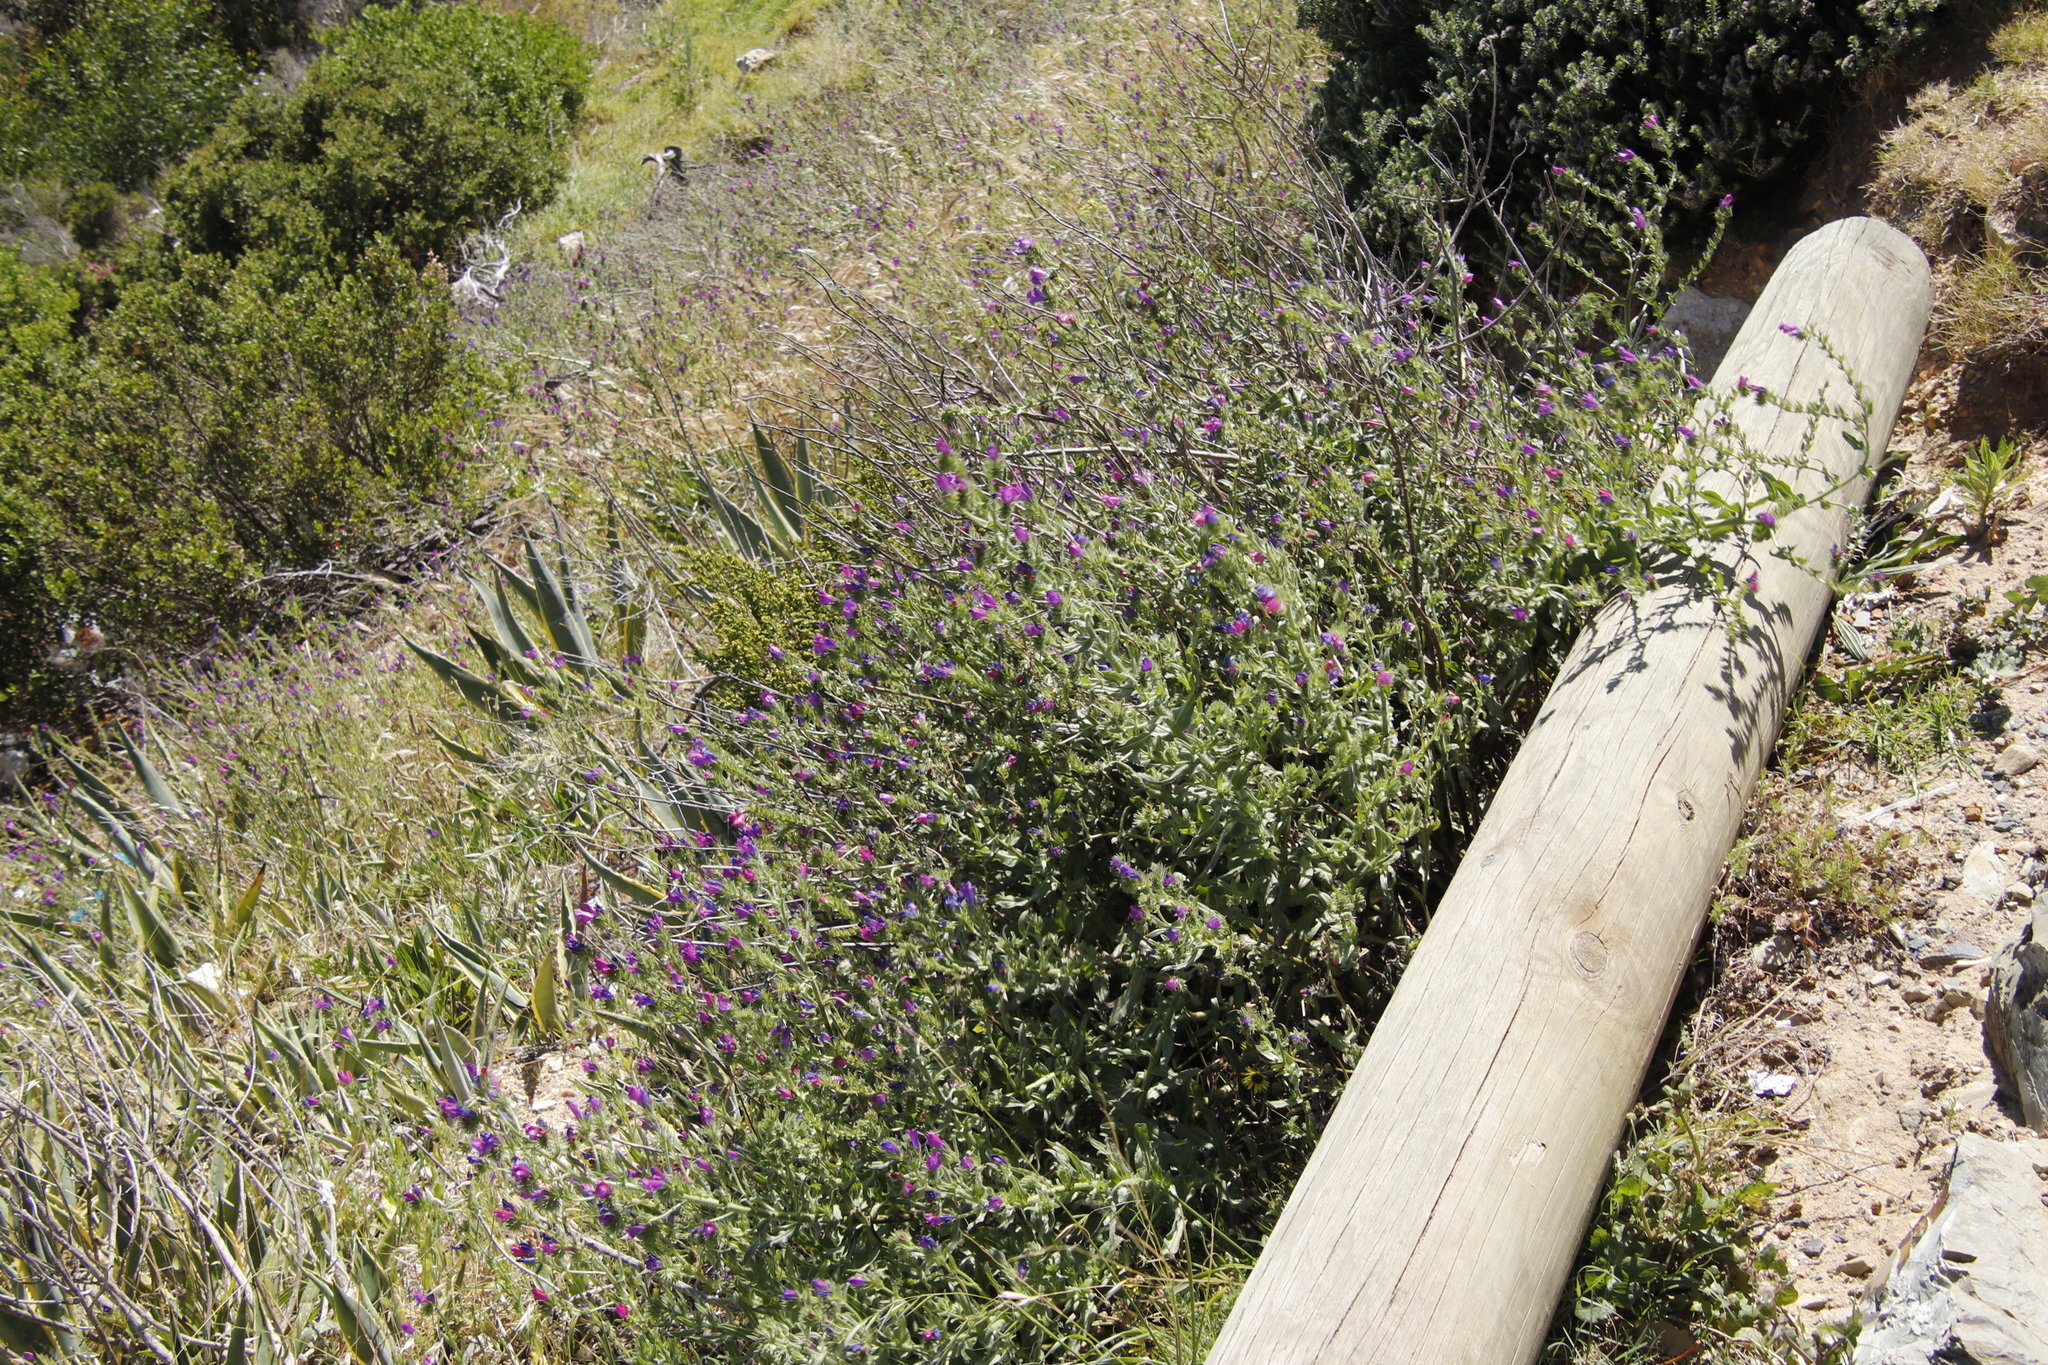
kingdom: Plantae
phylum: Tracheophyta
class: Magnoliopsida
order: Boraginales
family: Boraginaceae
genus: Echium
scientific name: Echium plantagineum
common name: Purple viper's-bugloss
